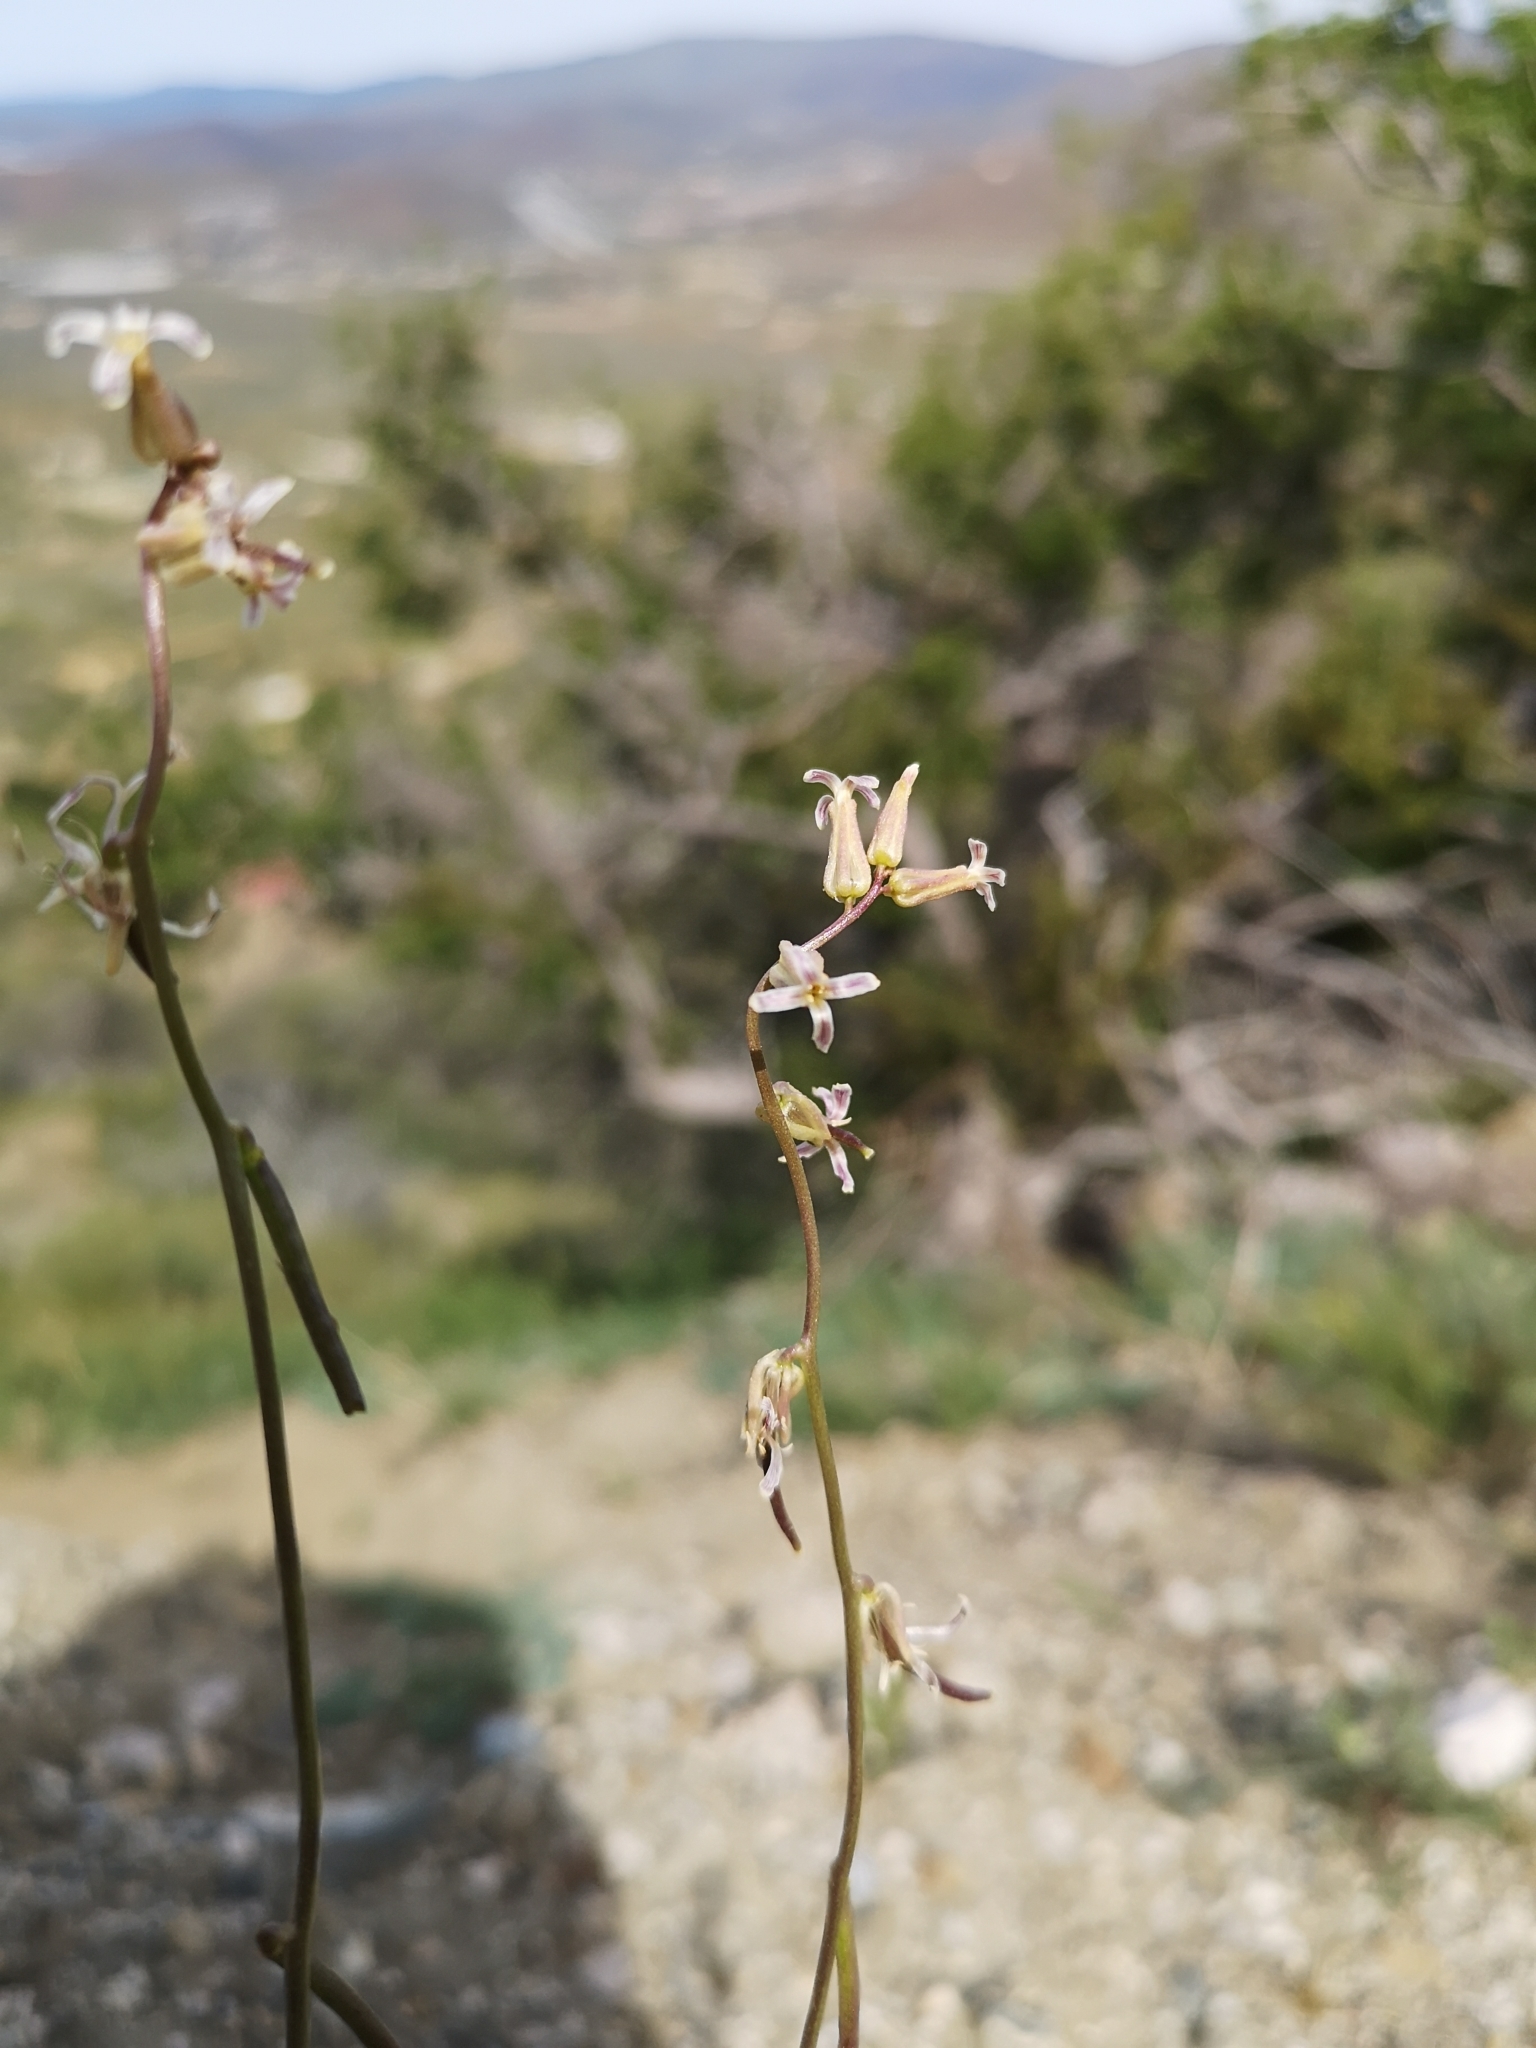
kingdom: Plantae
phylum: Tracheophyta
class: Magnoliopsida
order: Brassicales
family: Brassicaceae
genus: Streptanthus
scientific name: Streptanthus cooperi
